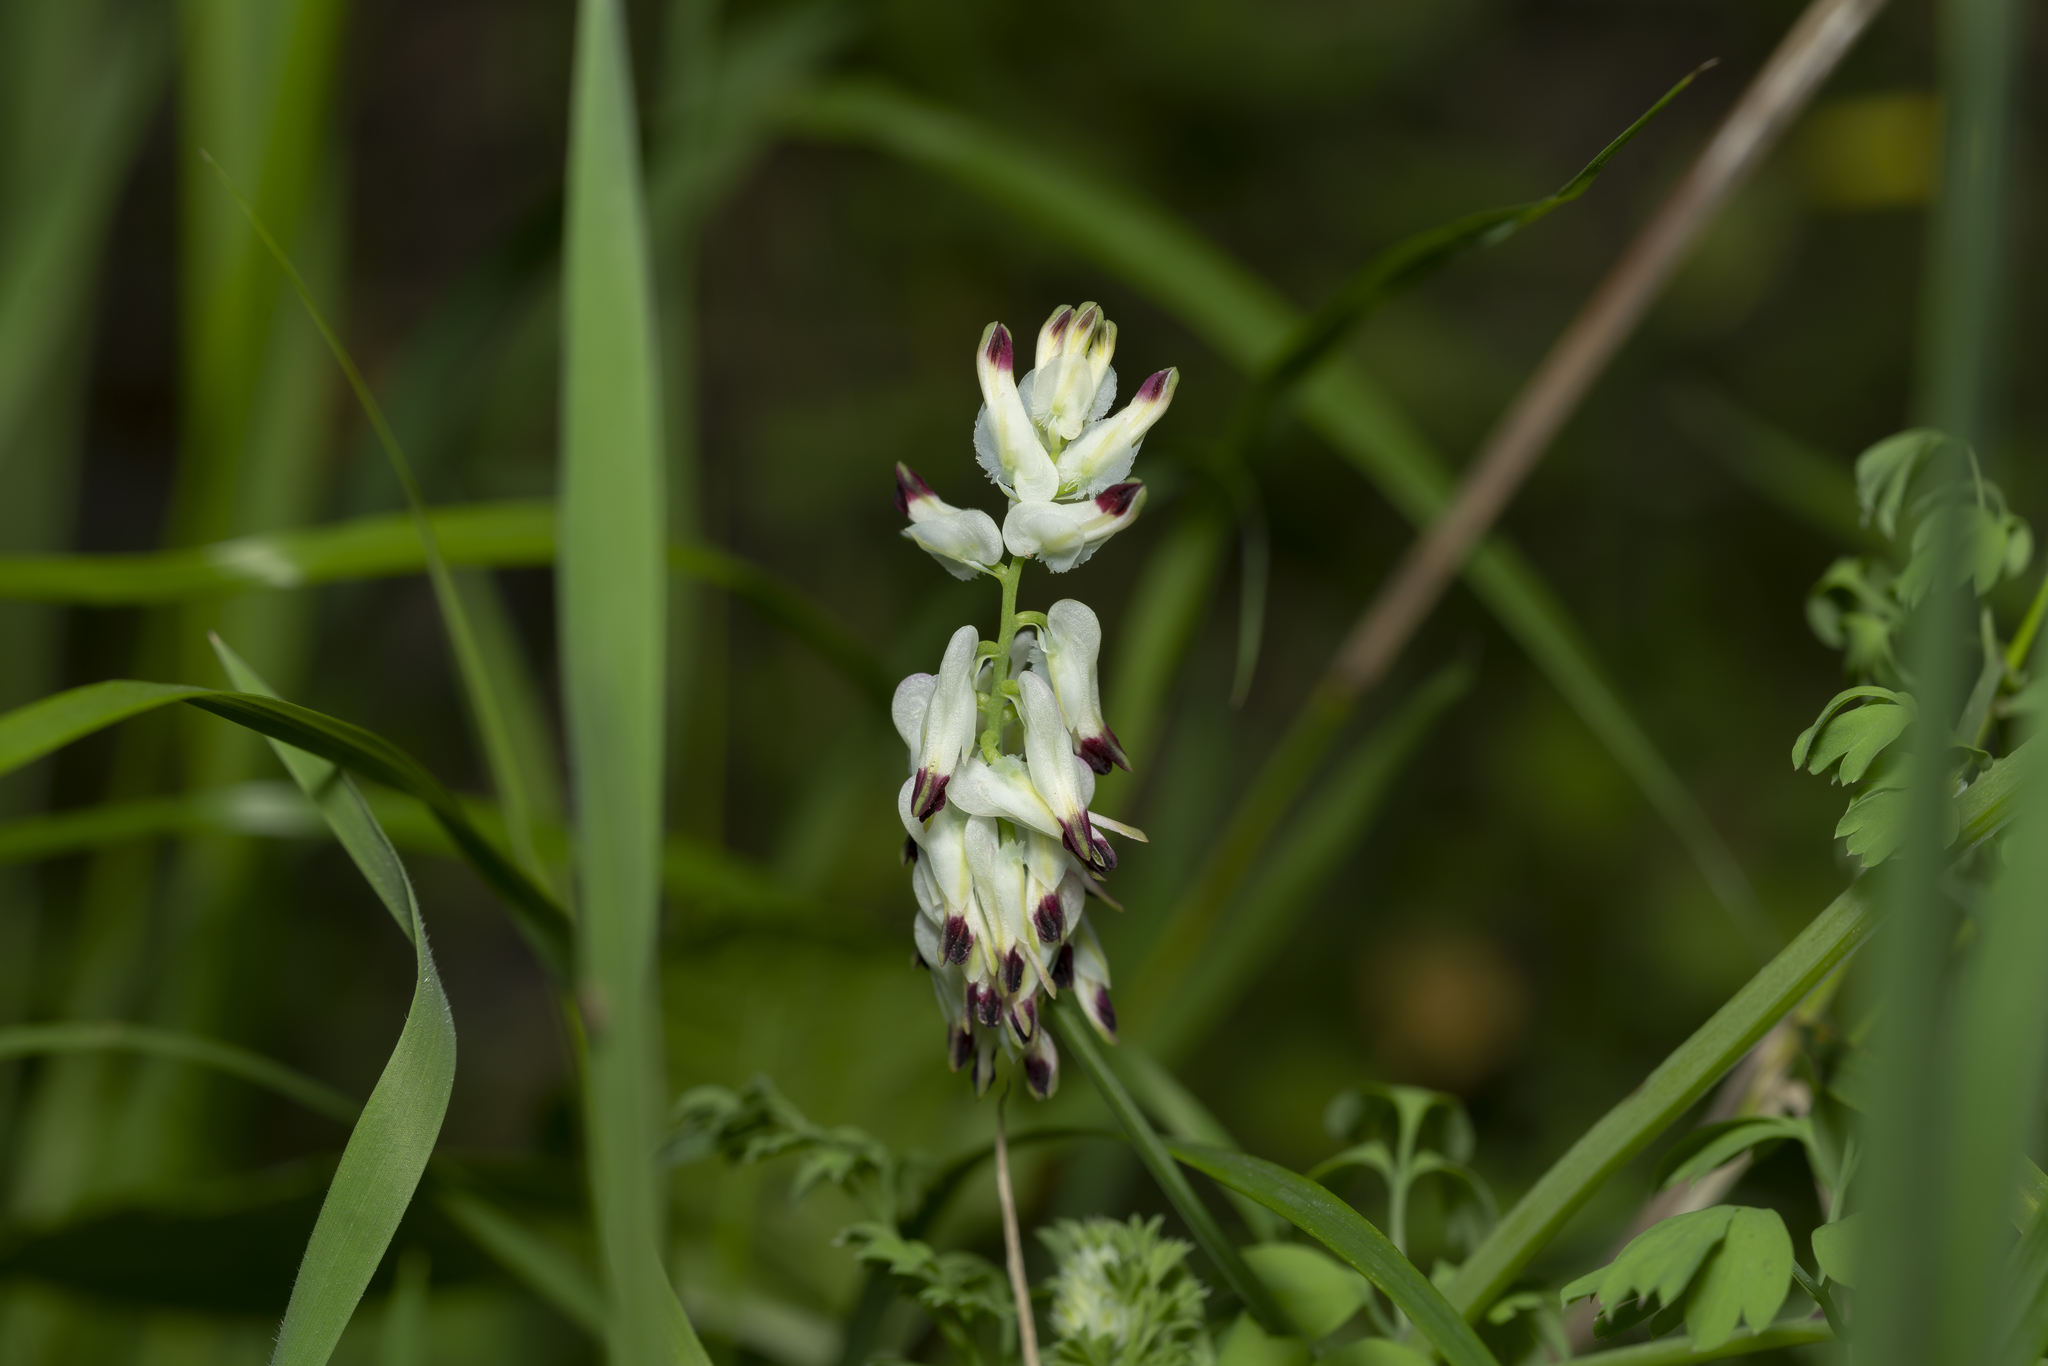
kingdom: Plantae
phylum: Tracheophyta
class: Magnoliopsida
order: Ranunculales
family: Papaveraceae
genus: Fumaria
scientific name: Fumaria capreolata
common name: White ramping-fumitory
